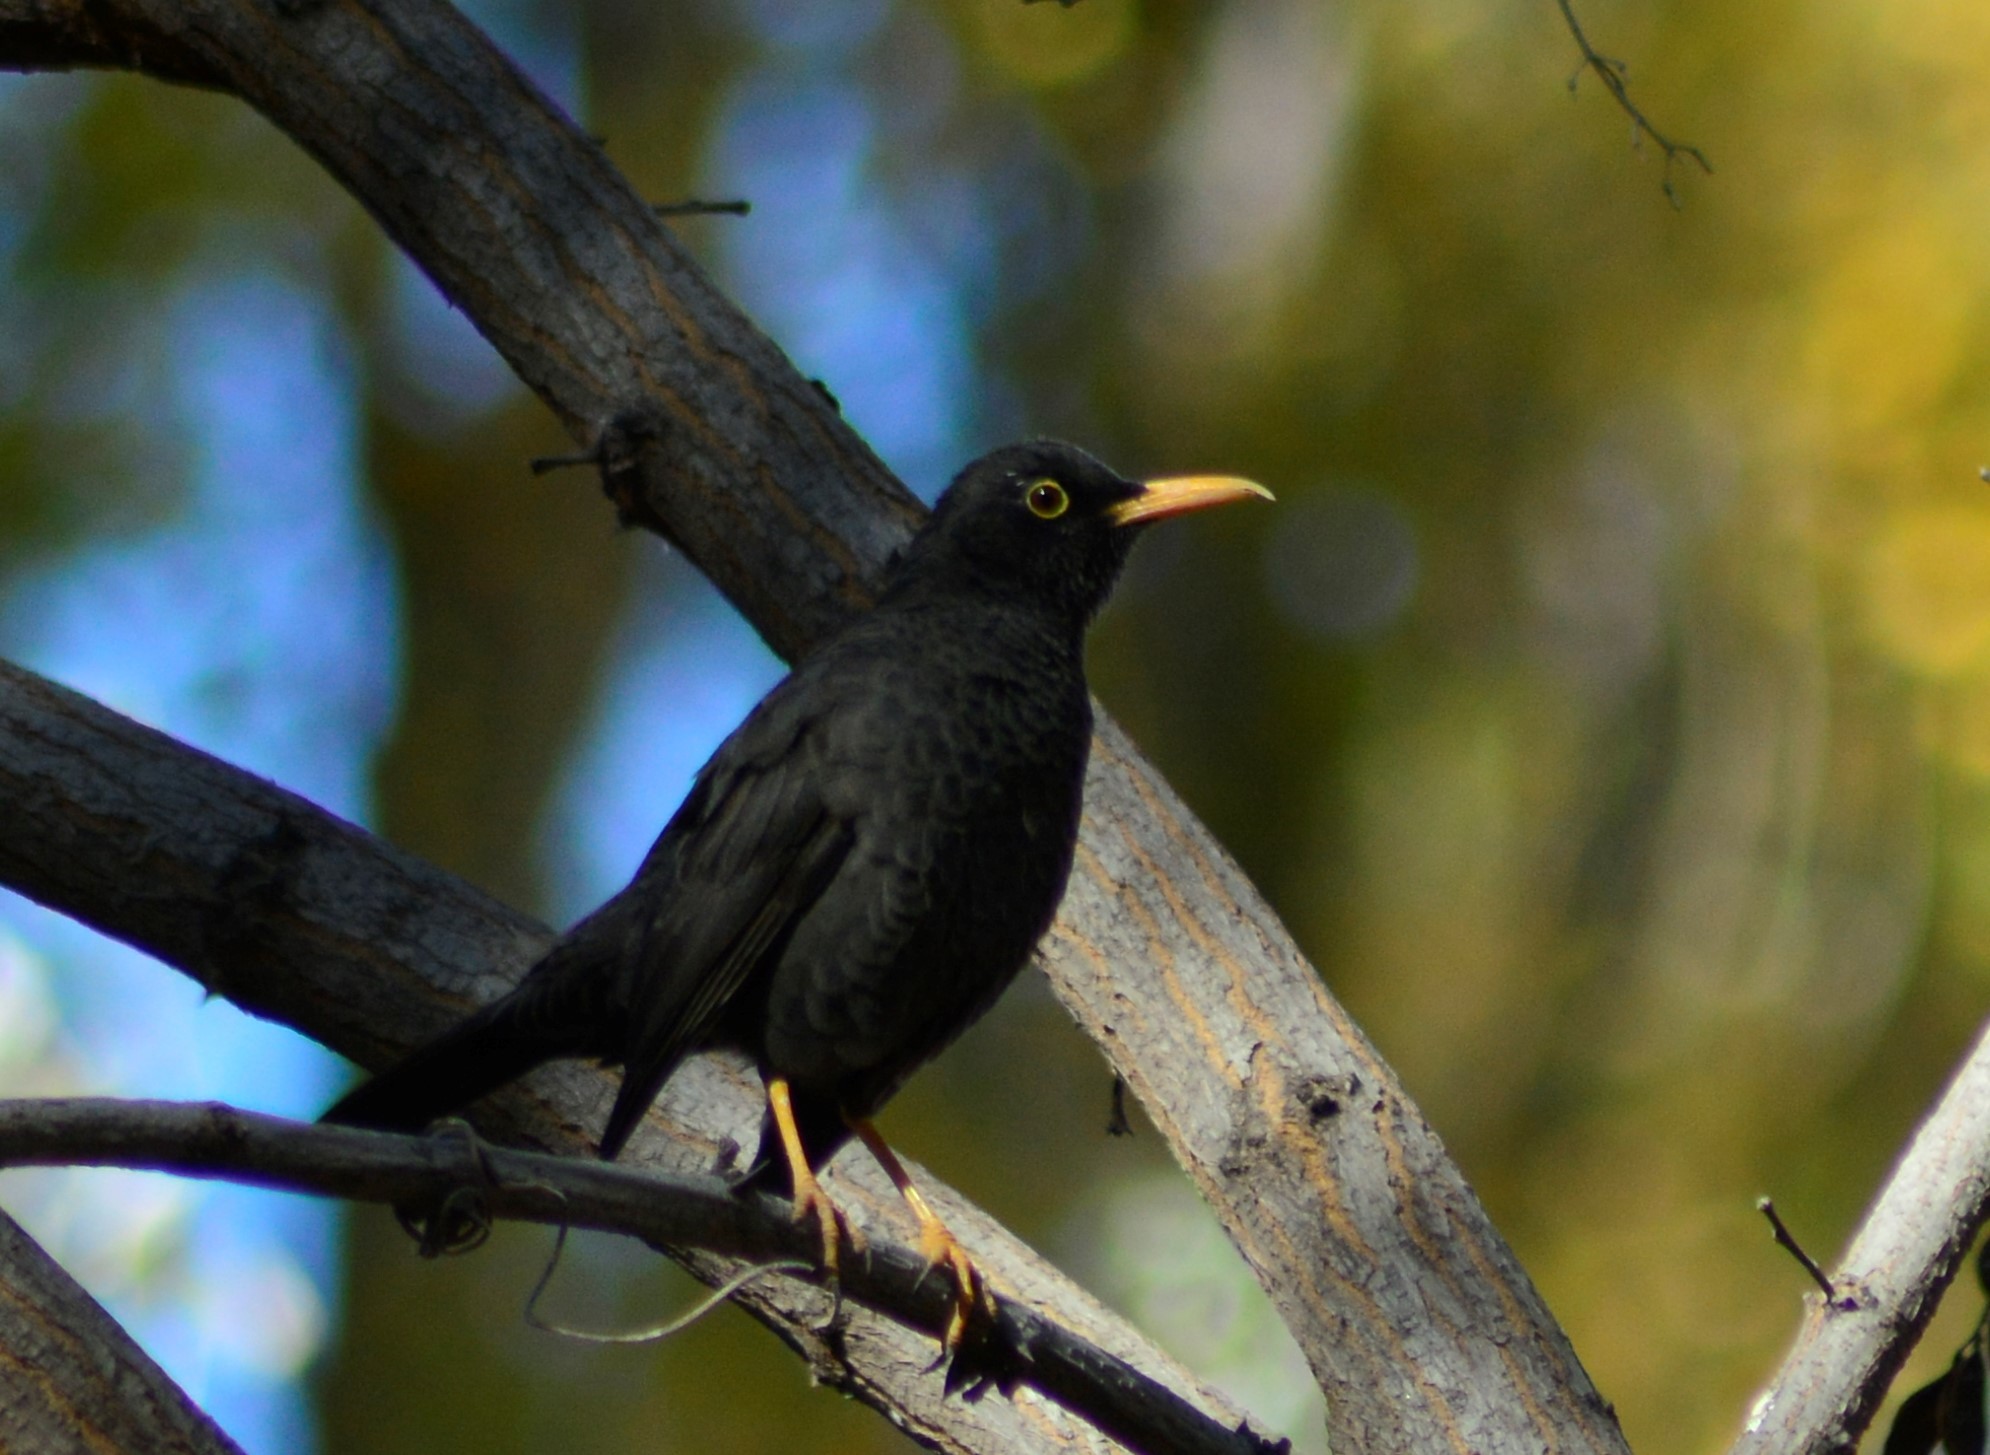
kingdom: Animalia
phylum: Chordata
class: Aves
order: Passeriformes
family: Turdidae
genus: Turdus
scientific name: Turdus chiguanco
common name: Chiguanco thrush
